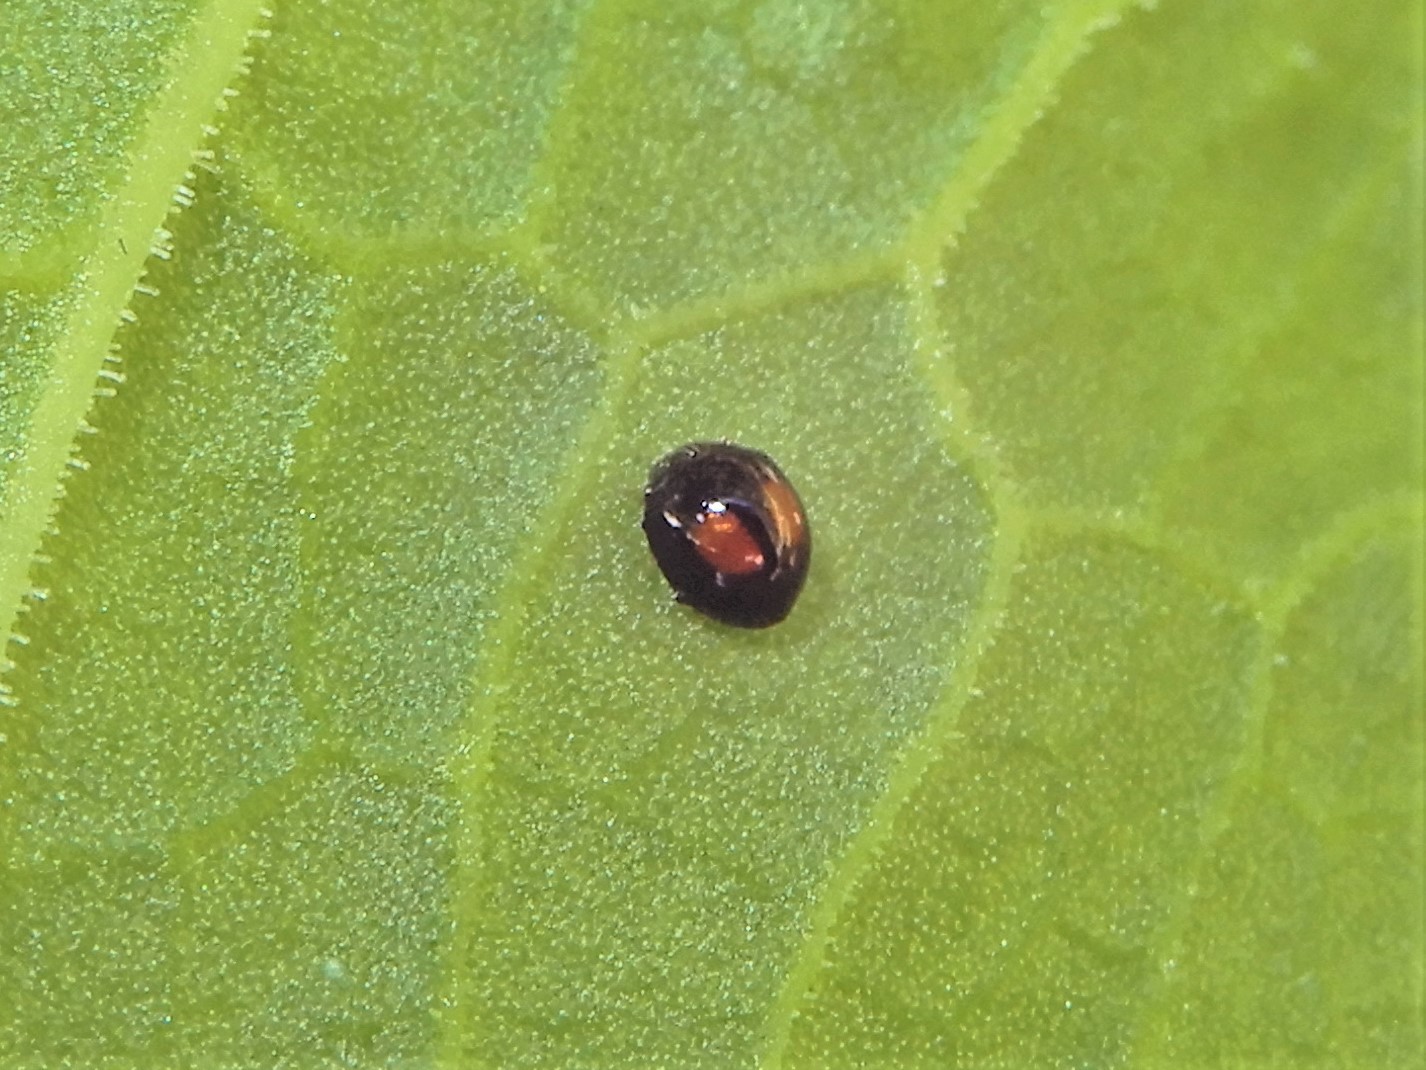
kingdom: Animalia
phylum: Arthropoda
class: Insecta
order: Coleoptera
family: Coccinellidae
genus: Serangium
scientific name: Serangium maculigerum
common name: Lady beetle
